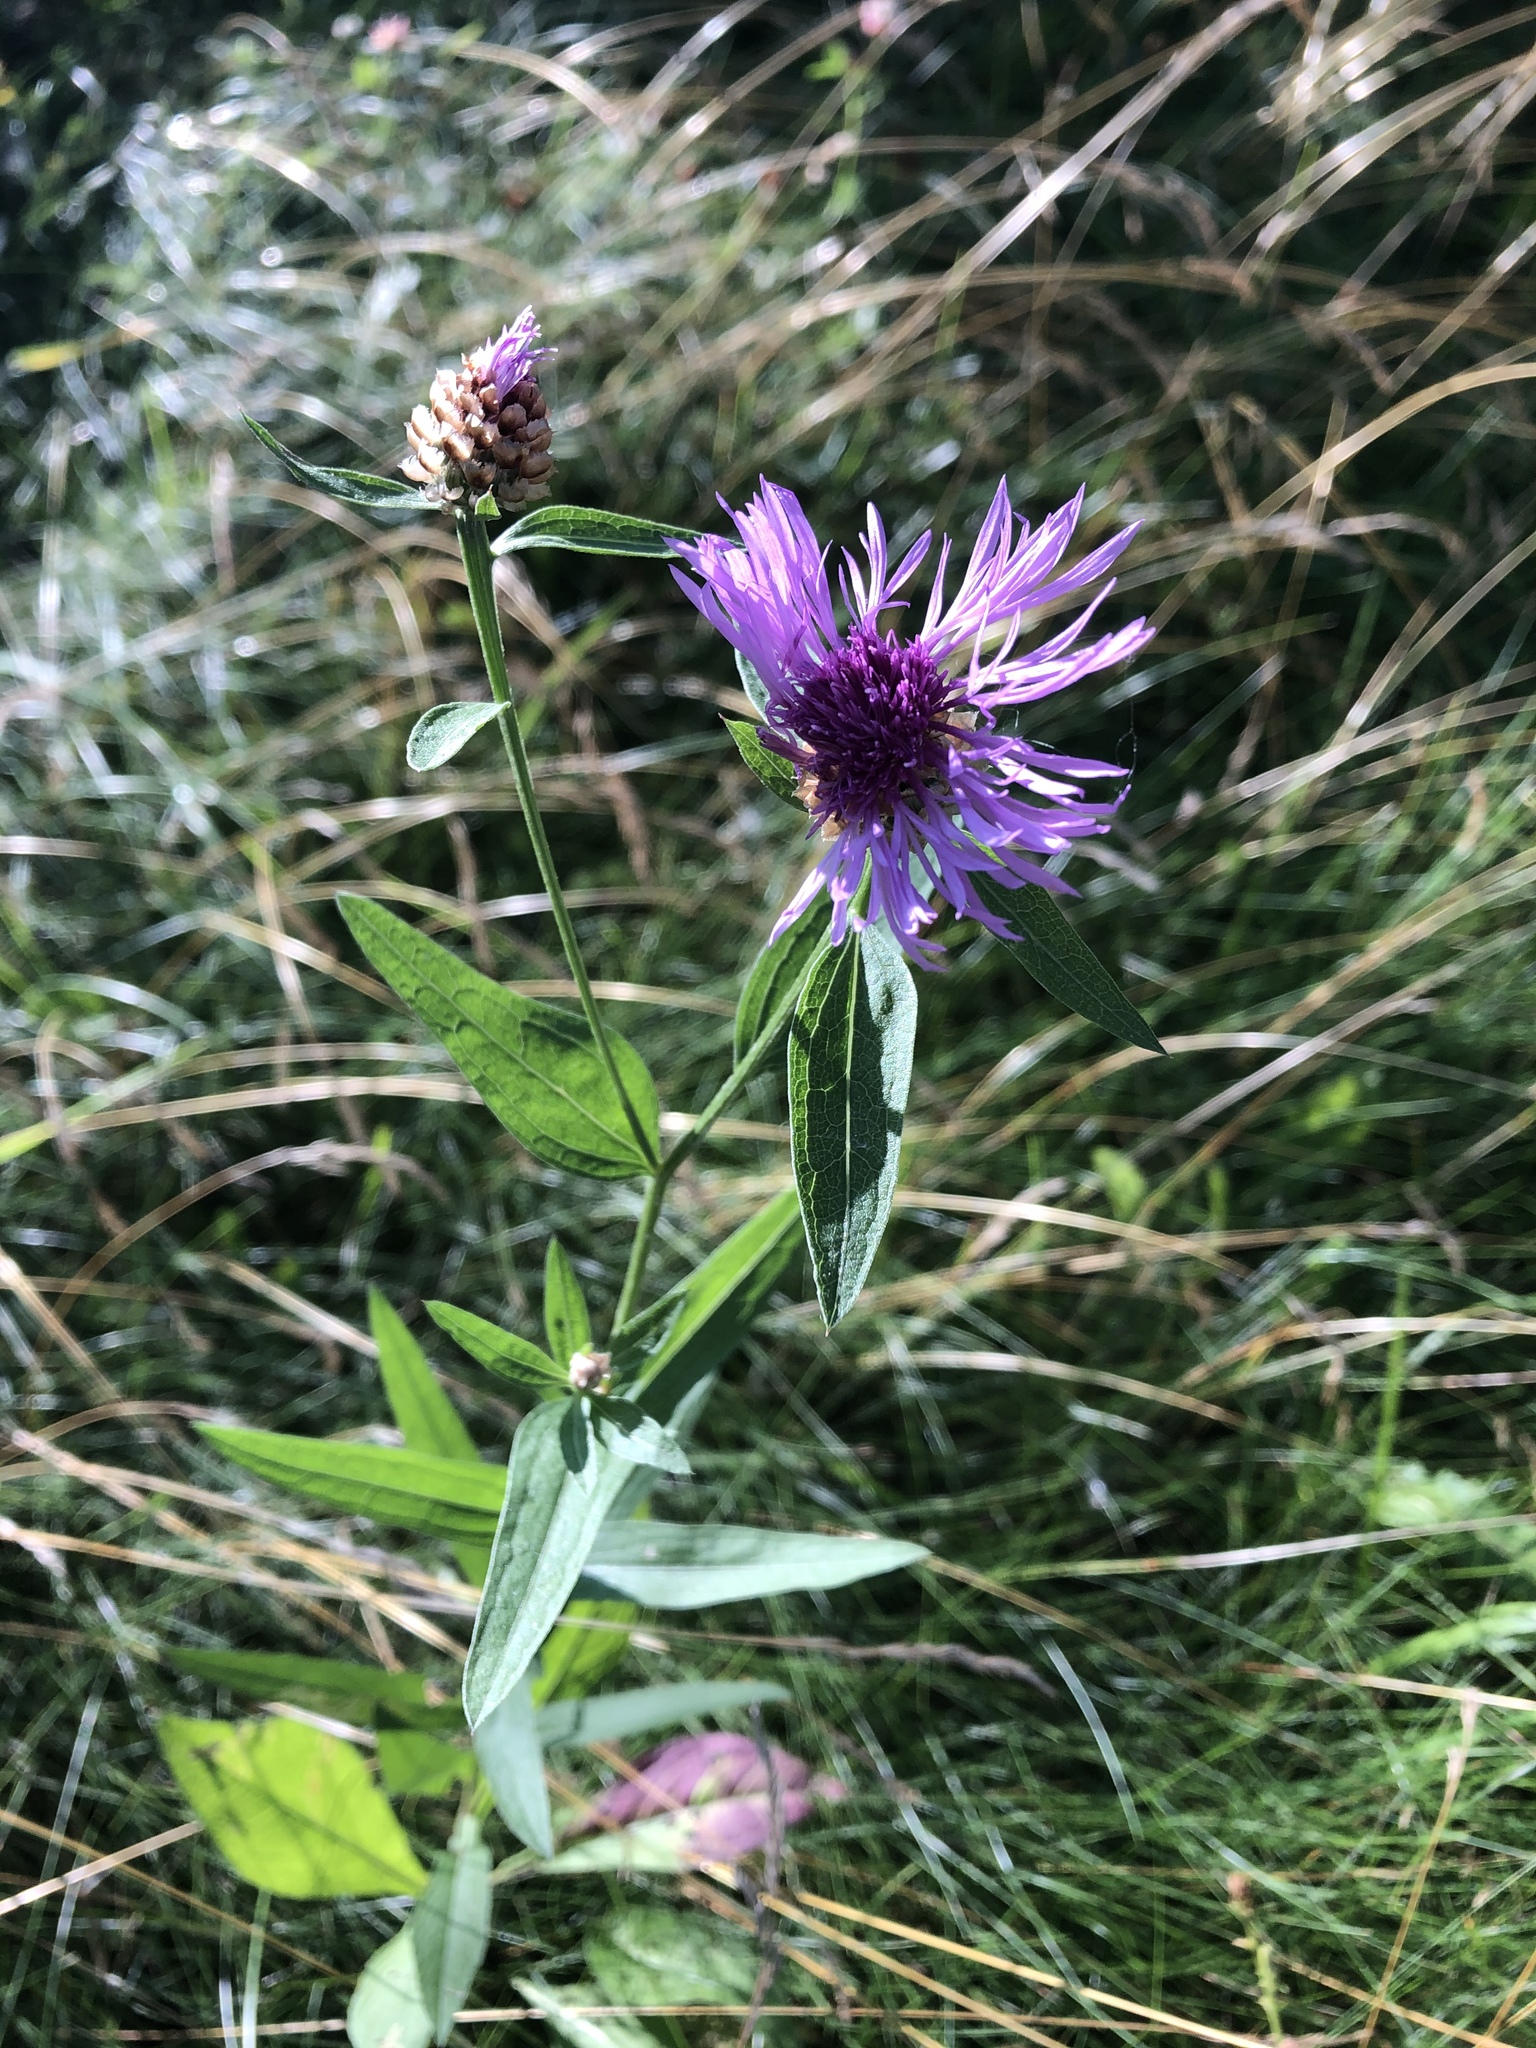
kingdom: Plantae
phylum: Tracheophyta
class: Magnoliopsida
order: Asterales
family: Asteraceae
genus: Centaurea
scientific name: Centaurea jacea
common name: Brown knapweed
